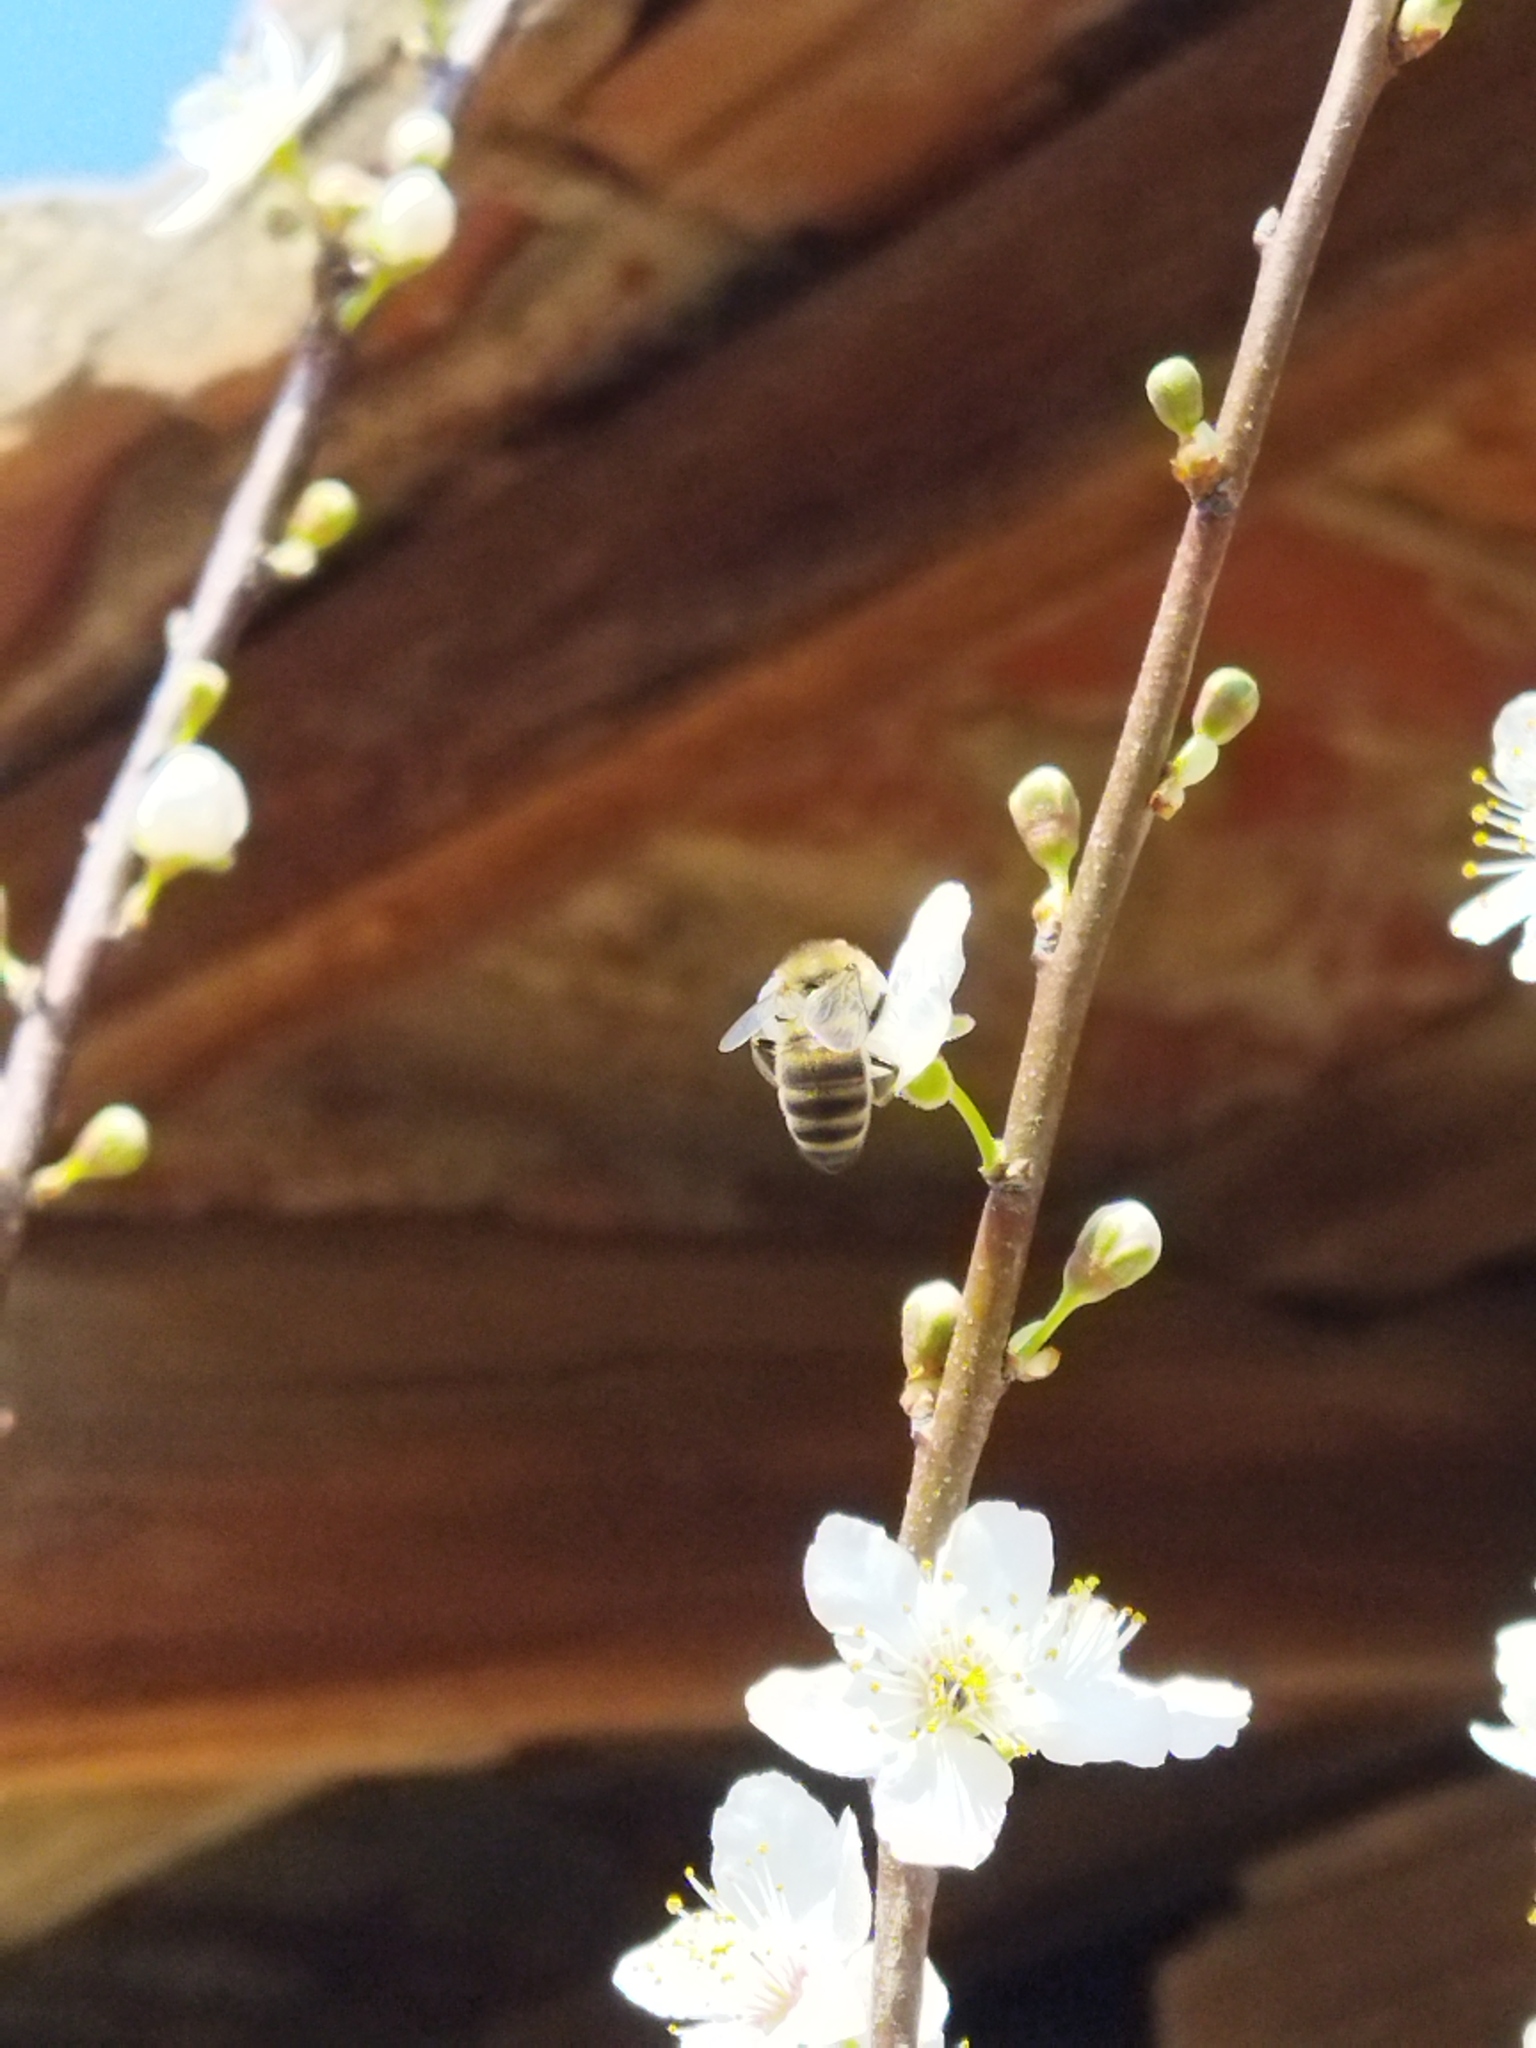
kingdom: Animalia
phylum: Arthropoda
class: Insecta
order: Hymenoptera
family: Apidae
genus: Apis
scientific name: Apis mellifera
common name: Honey bee
